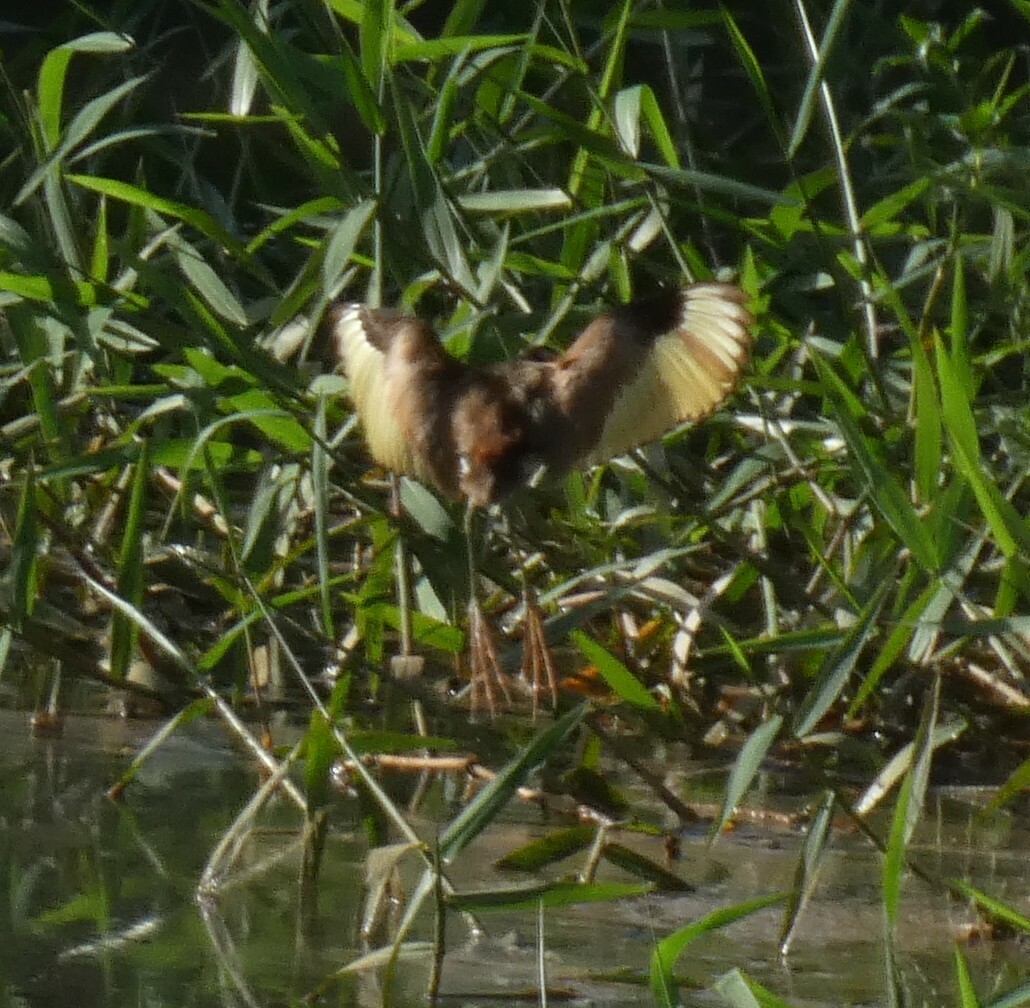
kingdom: Animalia
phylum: Chordata
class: Aves
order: Charadriiformes
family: Jacanidae
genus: Jacana
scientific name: Jacana jacana
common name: Wattled jacana
